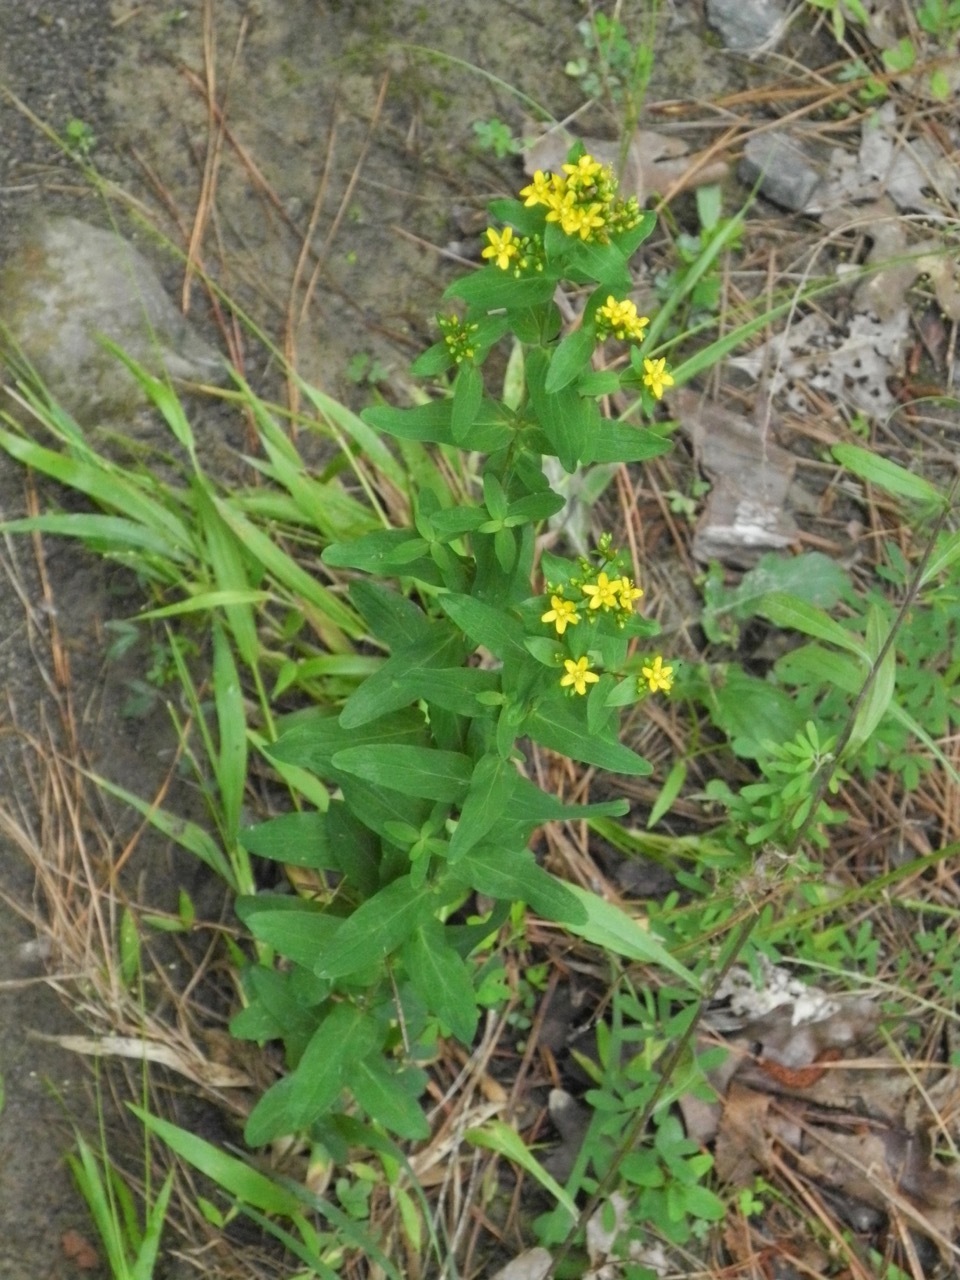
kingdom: Plantae
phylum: Tracheophyta
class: Magnoliopsida
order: Malpighiales
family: Hypericaceae
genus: Hypericum
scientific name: Hypericum punctatum
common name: Spotted st. john's-wort
